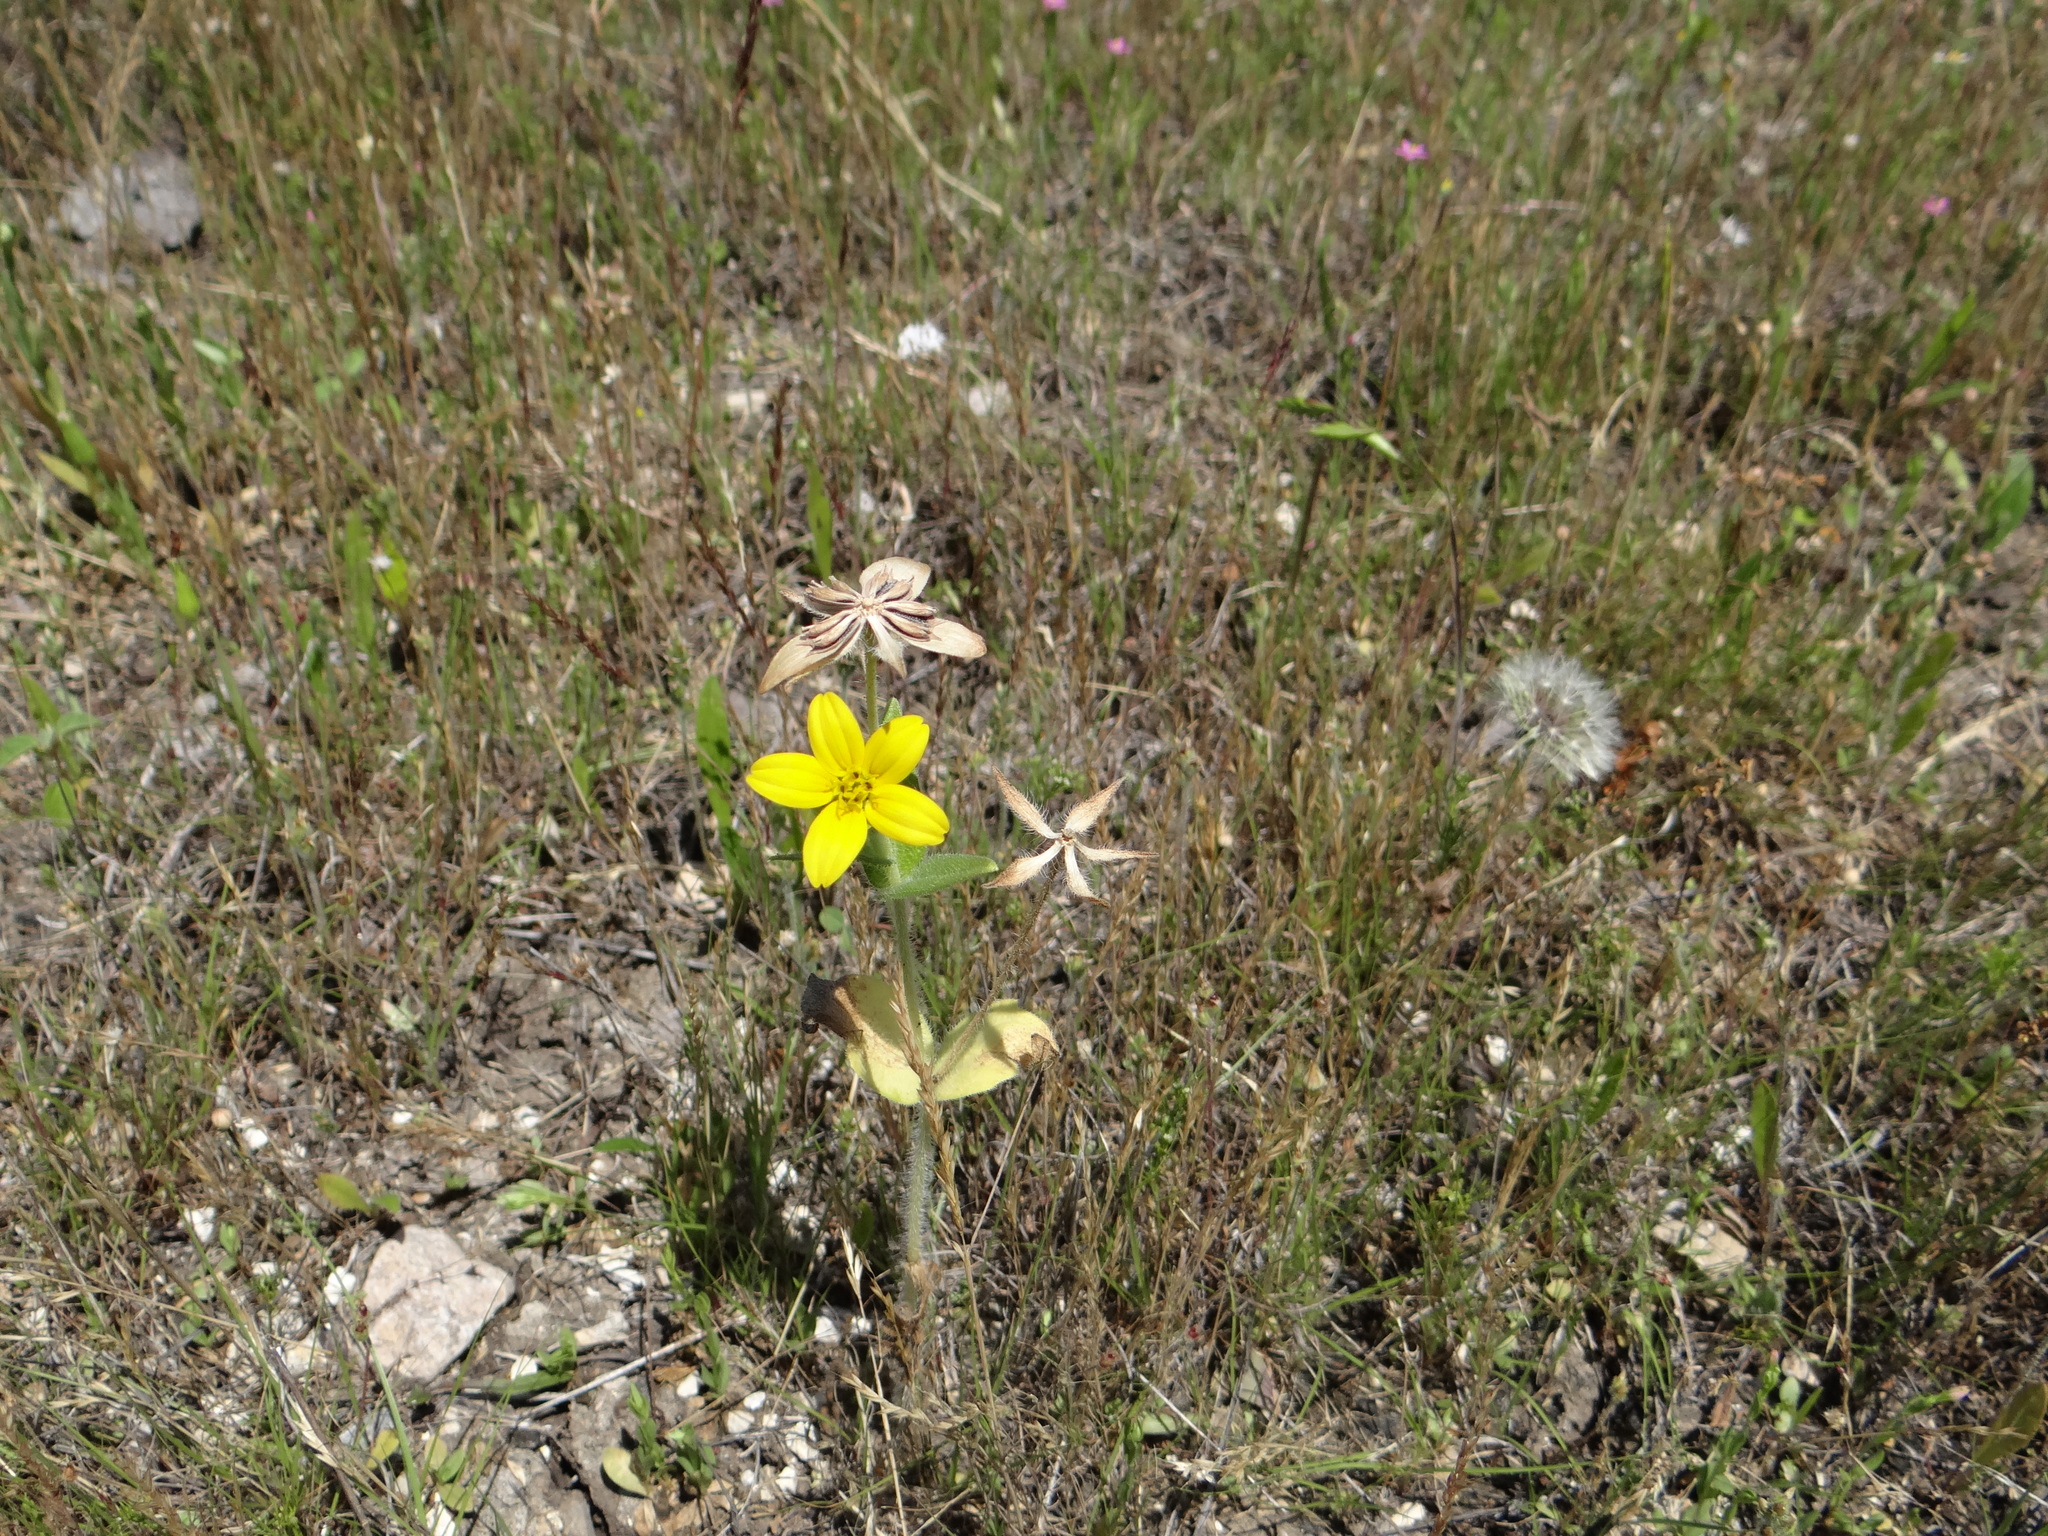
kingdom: Plantae
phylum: Tracheophyta
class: Magnoliopsida
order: Asterales
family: Asteraceae
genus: Lindheimera
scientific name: Lindheimera texana
